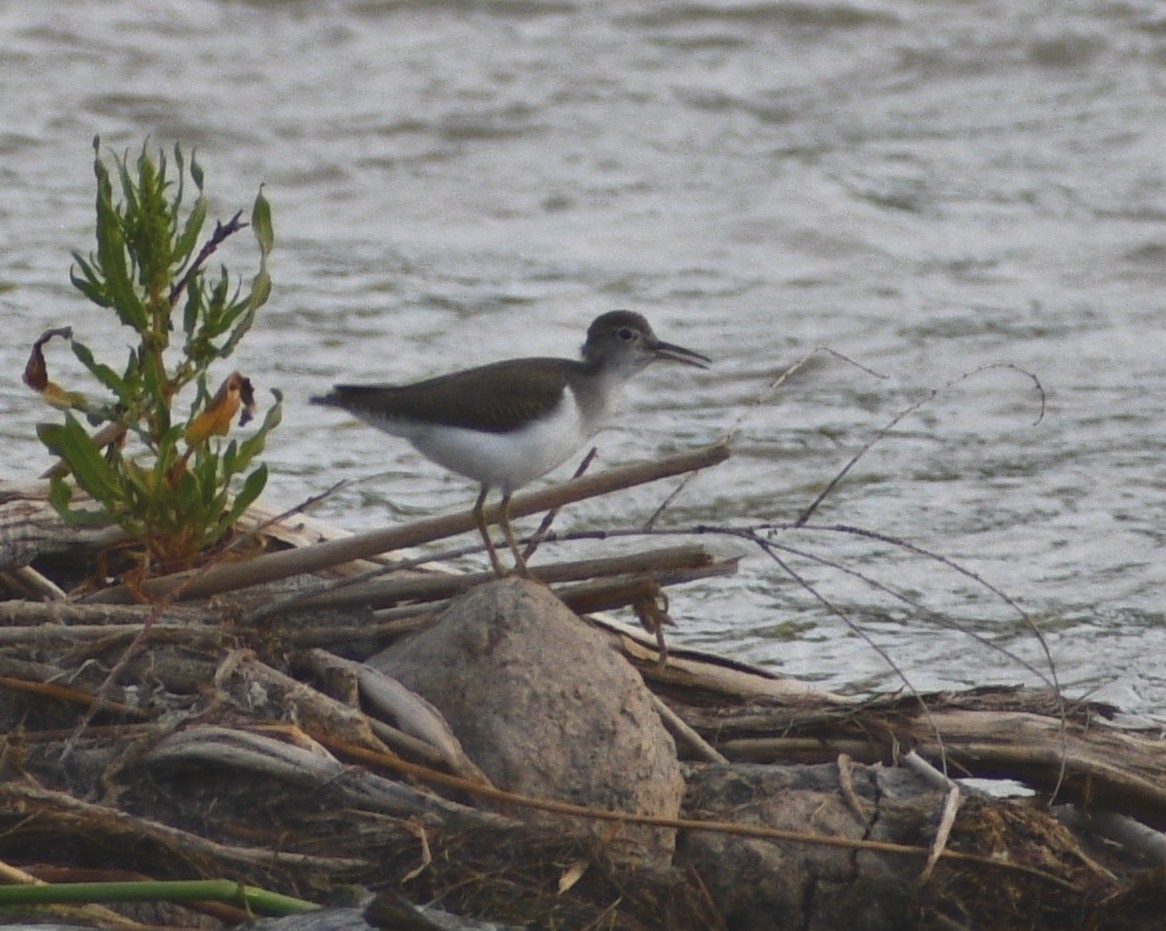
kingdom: Animalia
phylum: Chordata
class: Aves
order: Charadriiformes
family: Scolopacidae
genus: Actitis
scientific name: Actitis macularius
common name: Spotted sandpiper
